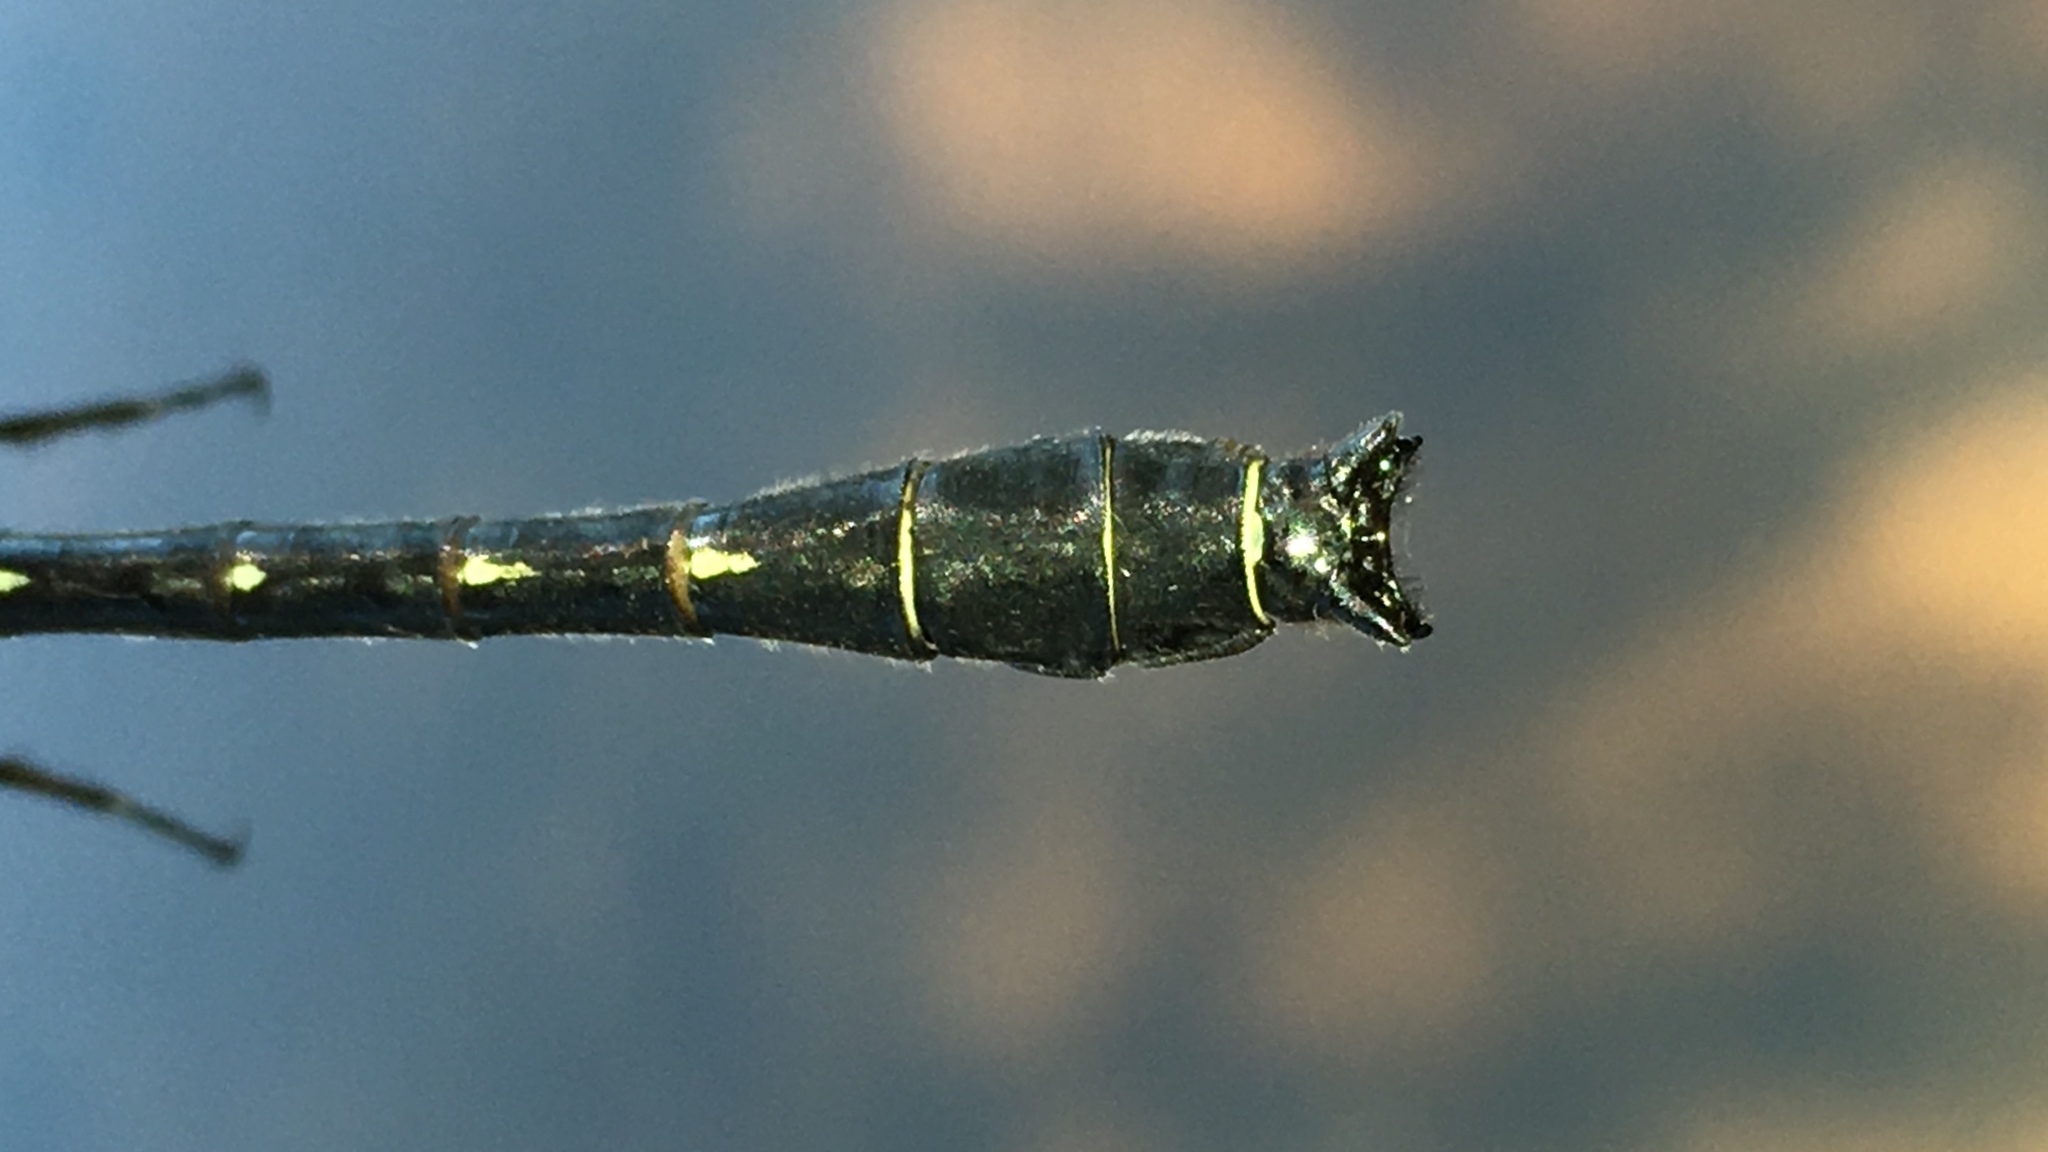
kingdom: Animalia
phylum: Arthropoda
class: Insecta
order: Odonata
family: Gomphidae
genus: Hylogomphus
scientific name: Hylogomphus adelphus
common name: Mustached clubtail
